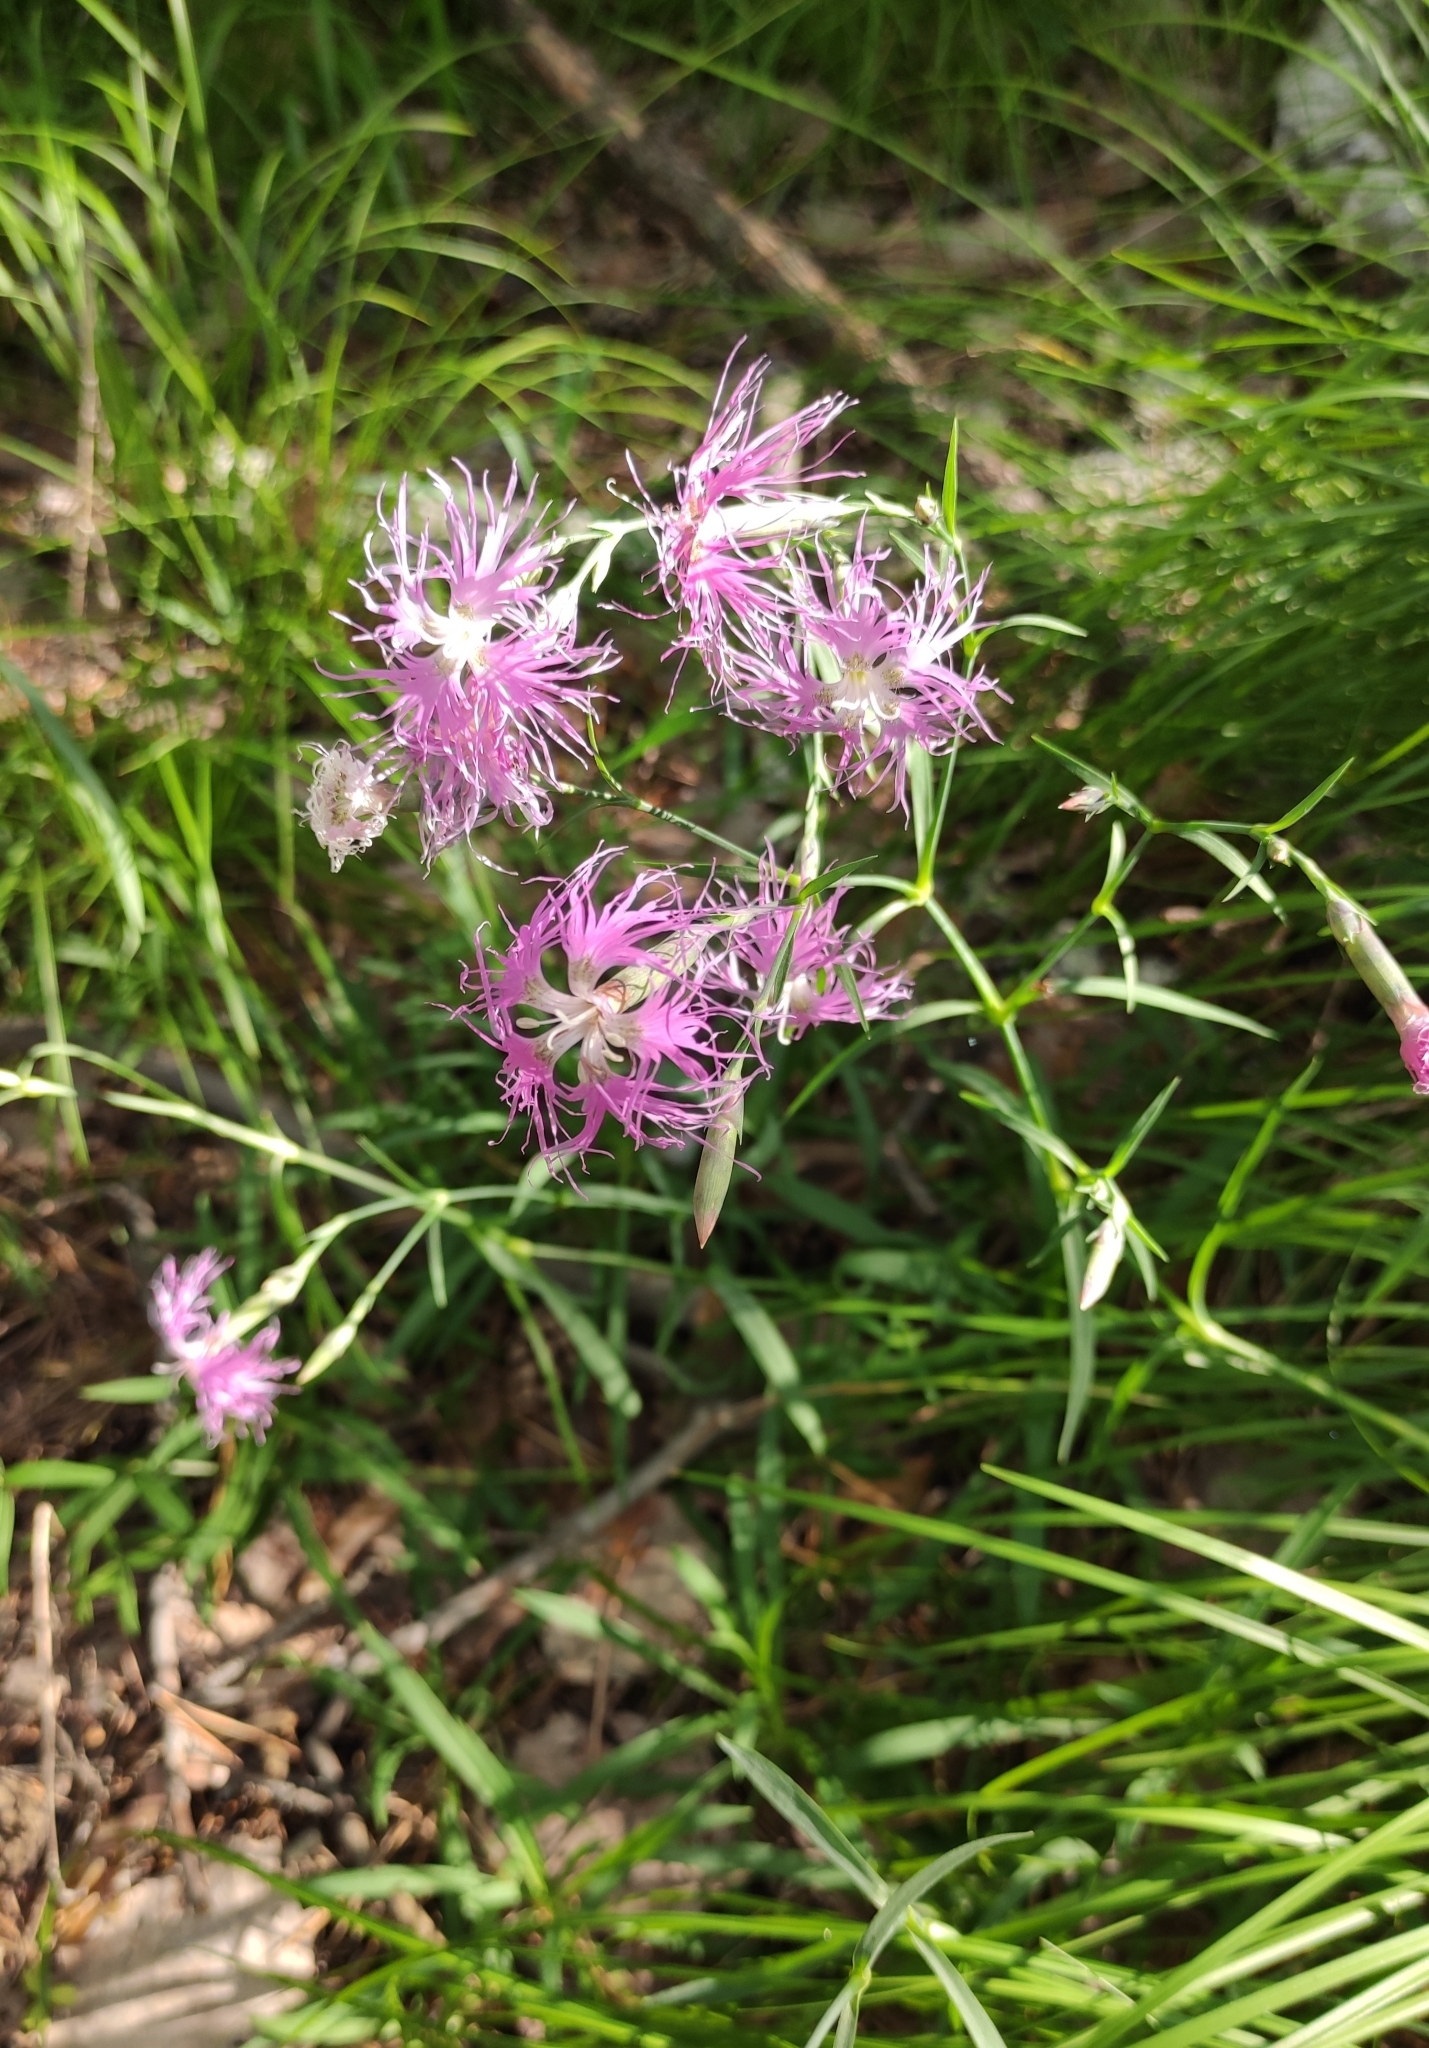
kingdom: Plantae
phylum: Tracheophyta
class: Magnoliopsida
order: Caryophyllales
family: Caryophyllaceae
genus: Dianthus
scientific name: Dianthus superbus
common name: Fringed pink
